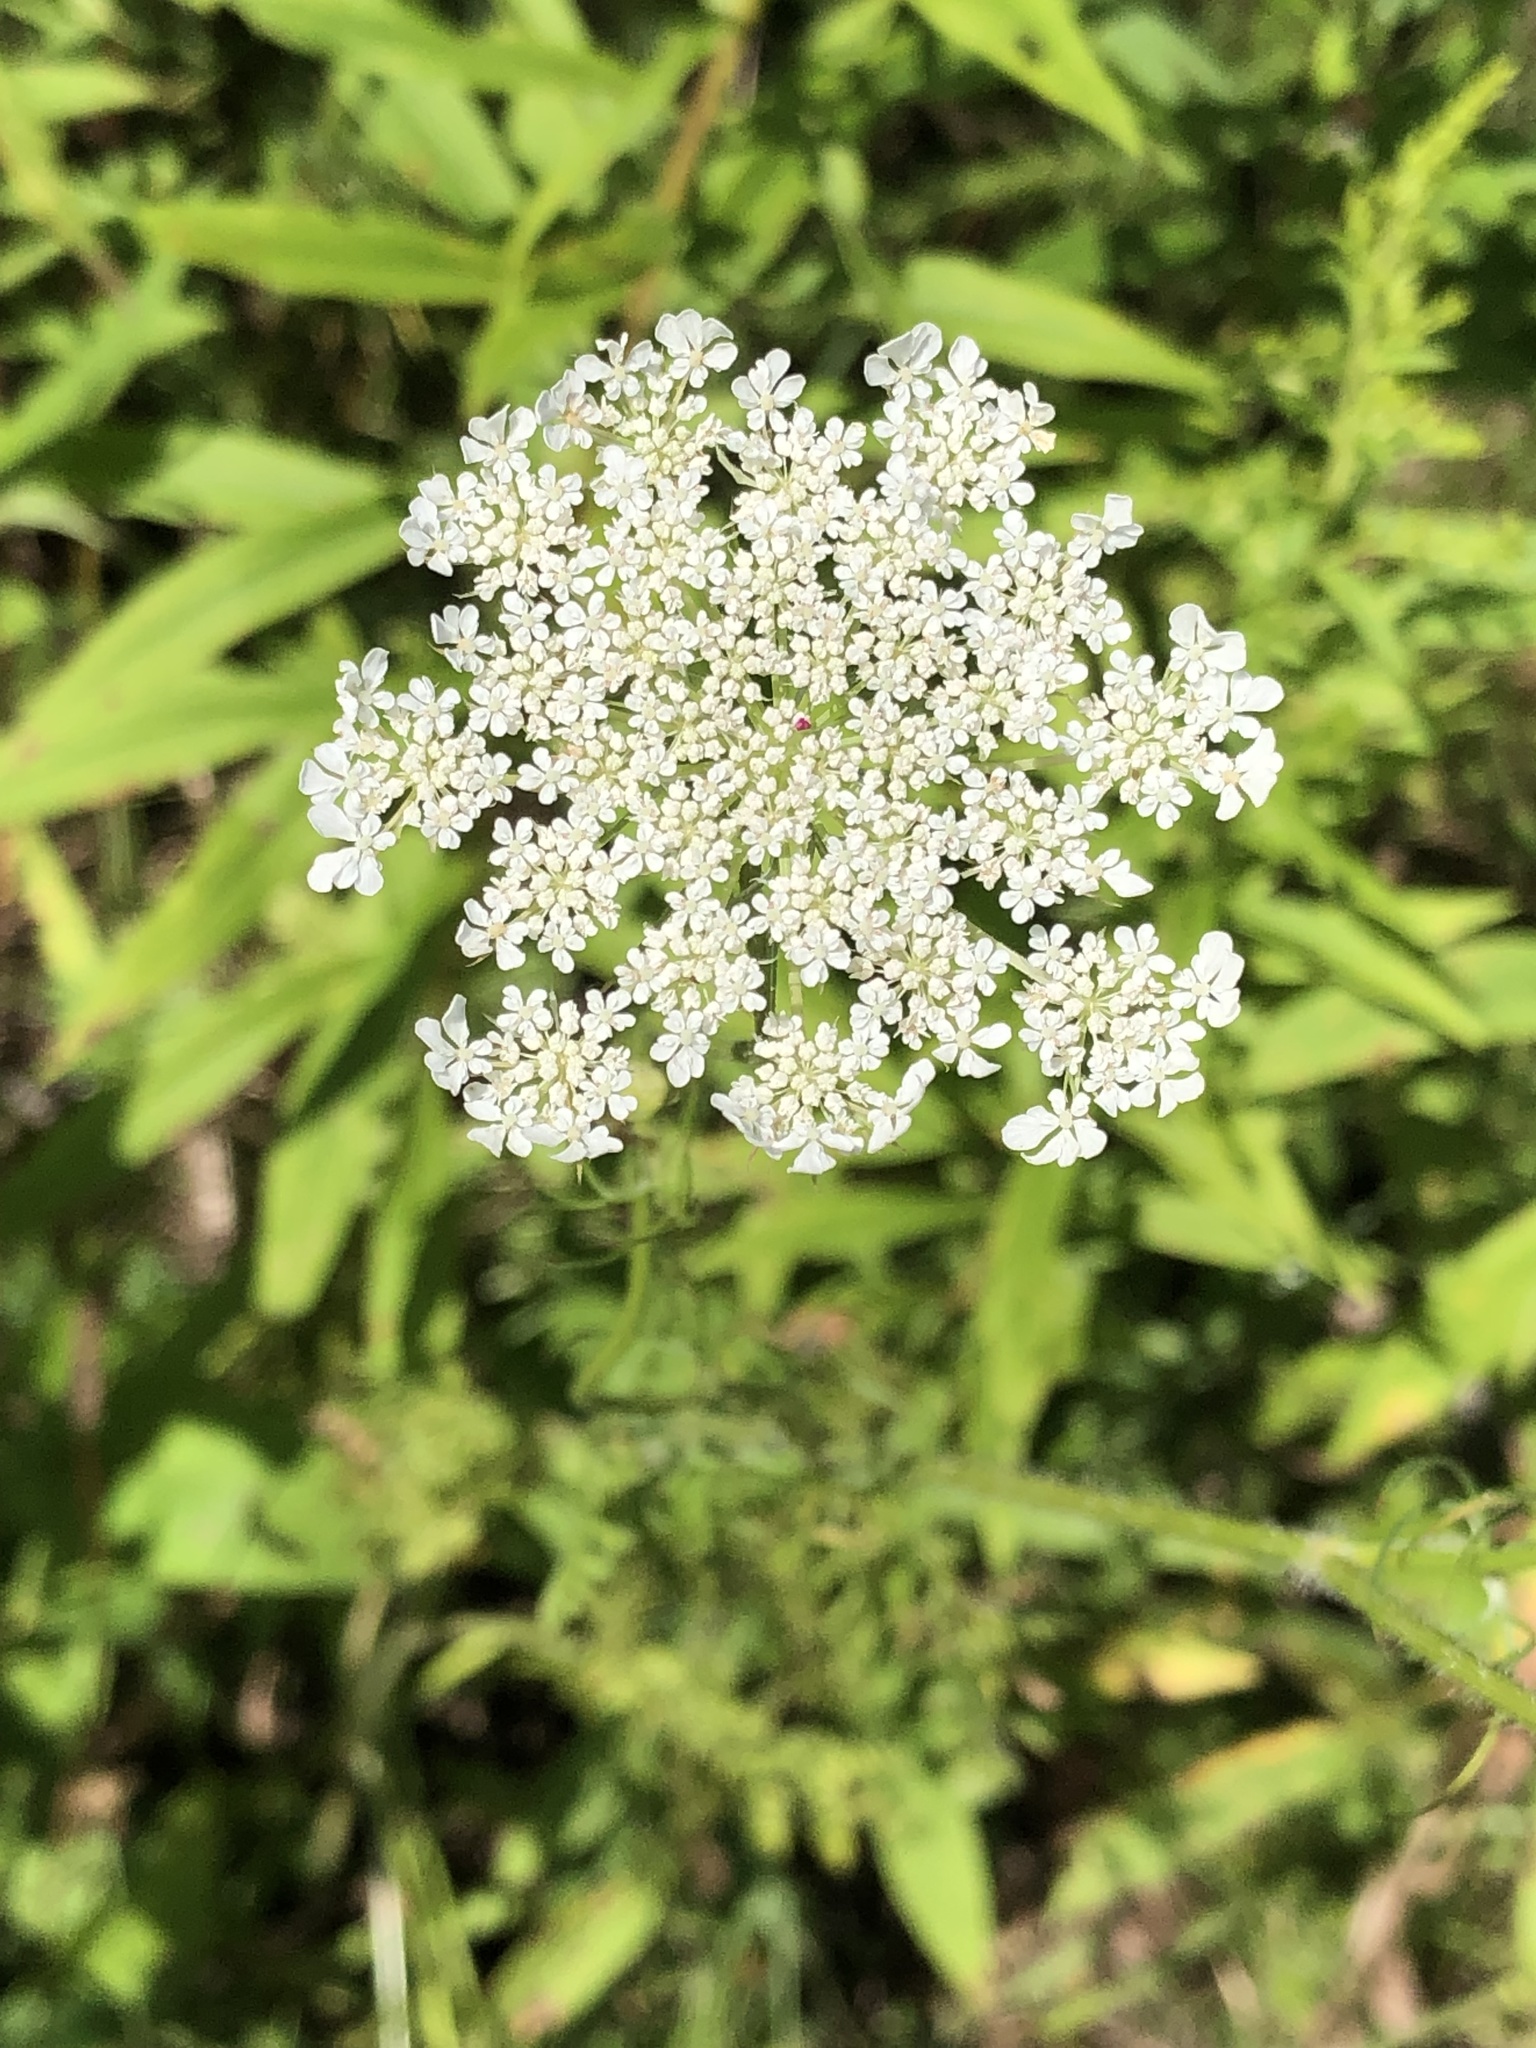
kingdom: Plantae
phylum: Tracheophyta
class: Magnoliopsida
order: Apiales
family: Apiaceae
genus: Daucus
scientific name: Daucus carota
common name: Wild carrot
